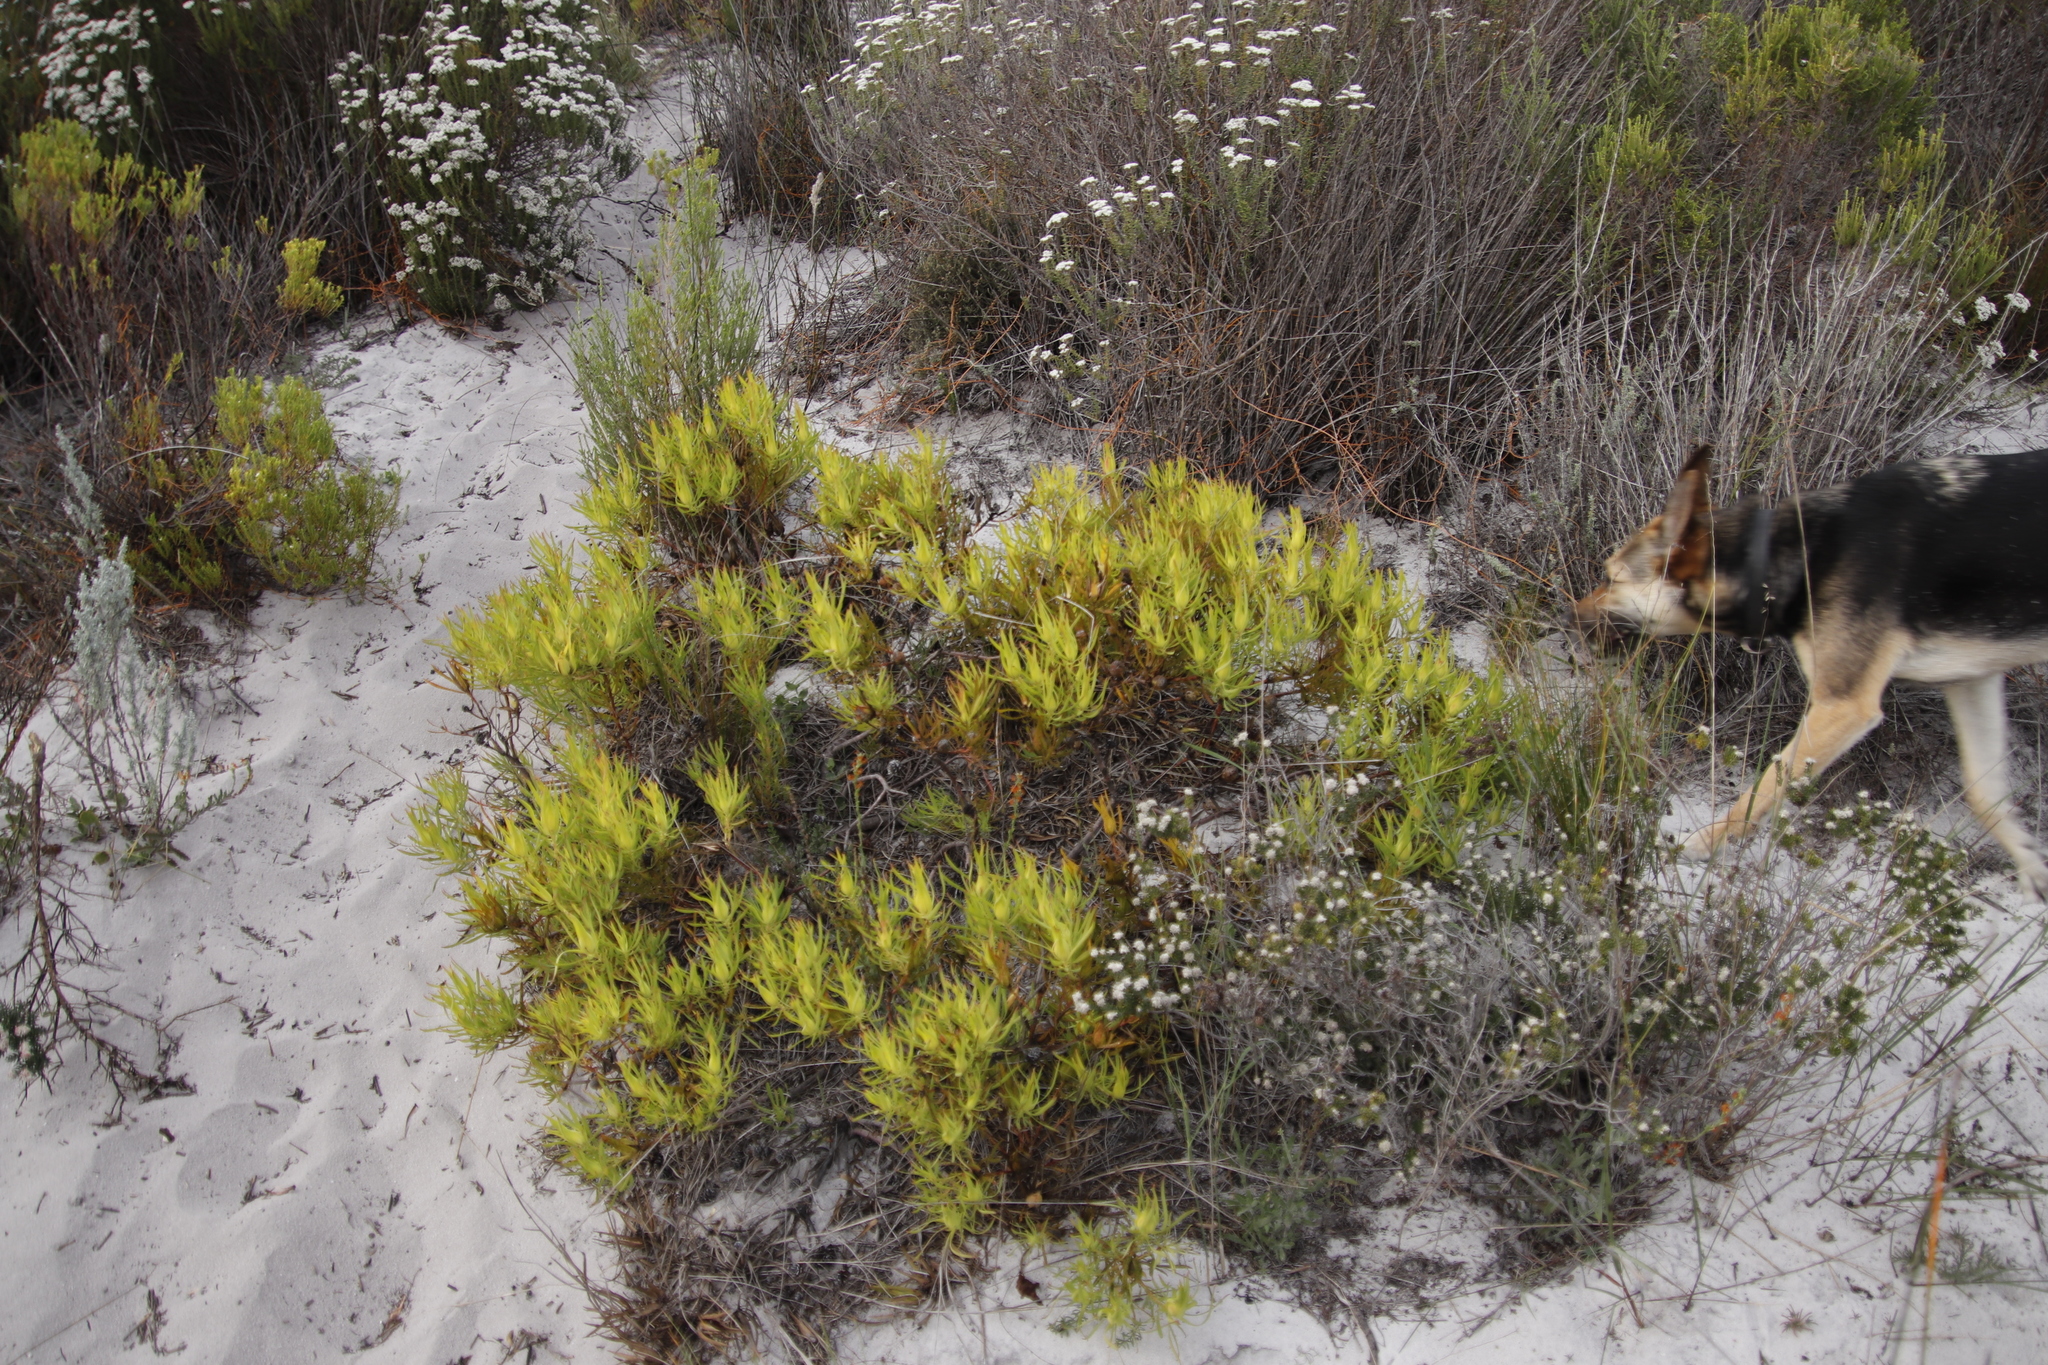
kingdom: Plantae
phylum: Tracheophyta
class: Magnoliopsida
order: Proteales
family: Proteaceae
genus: Leucadendron
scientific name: Leucadendron salignum
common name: Common sunshine conebush
